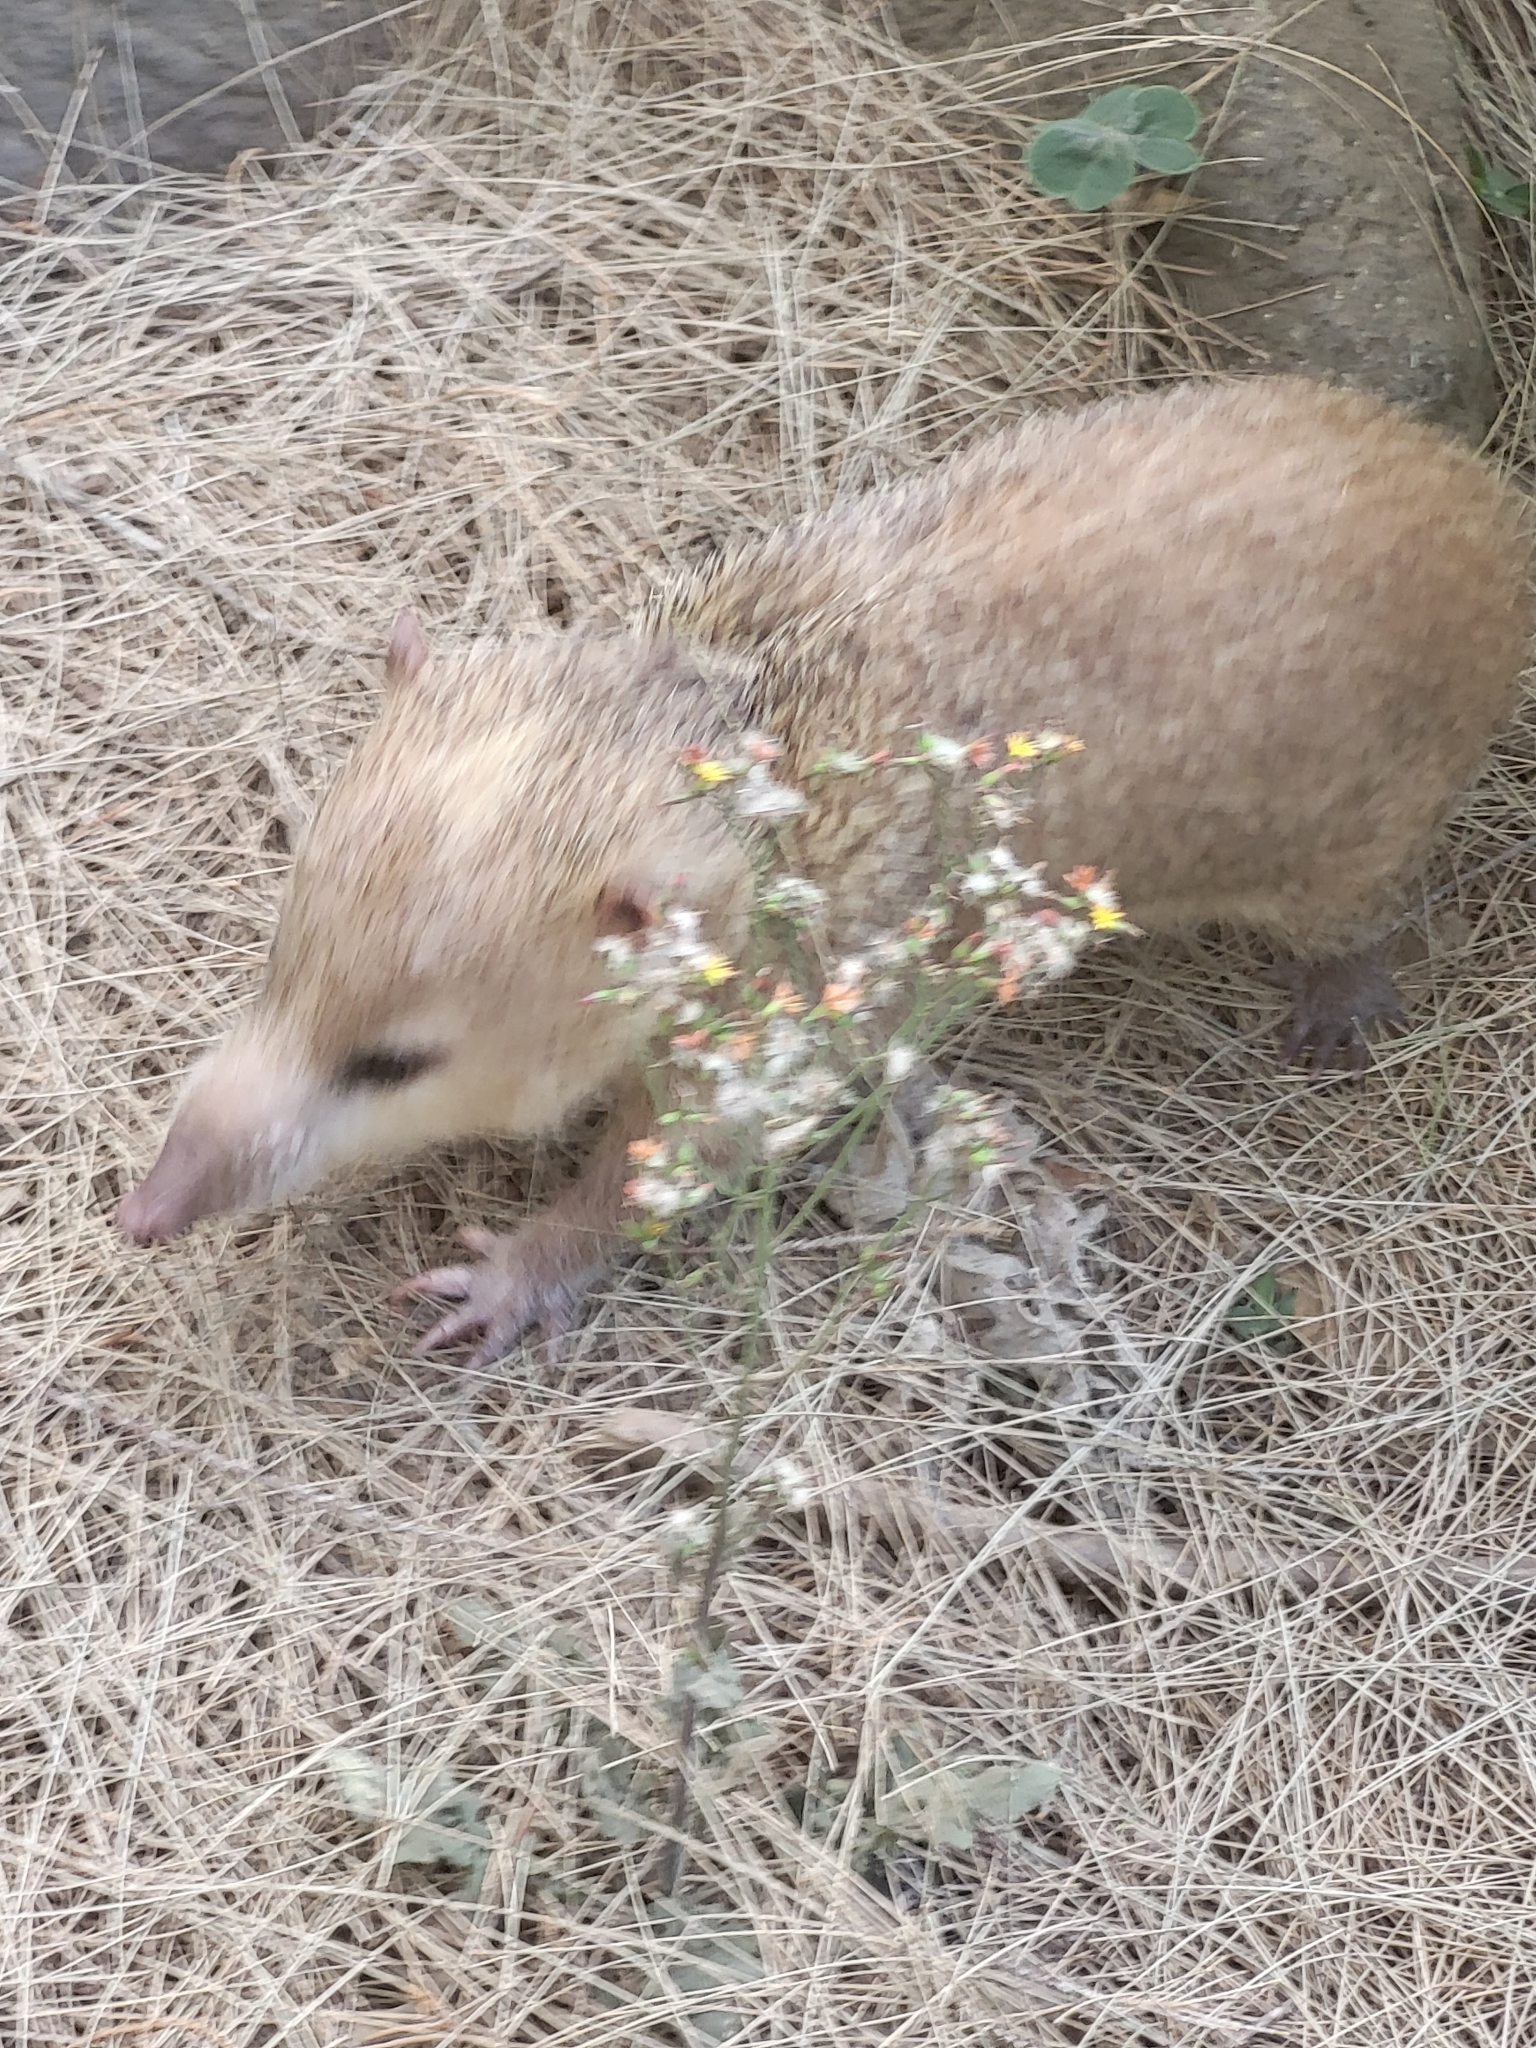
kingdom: Animalia
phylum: Chordata
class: Mammalia
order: Afrosoricida
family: Tenrecidae
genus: Tenrec
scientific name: Tenrec ecaudatus
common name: Common tenrec
